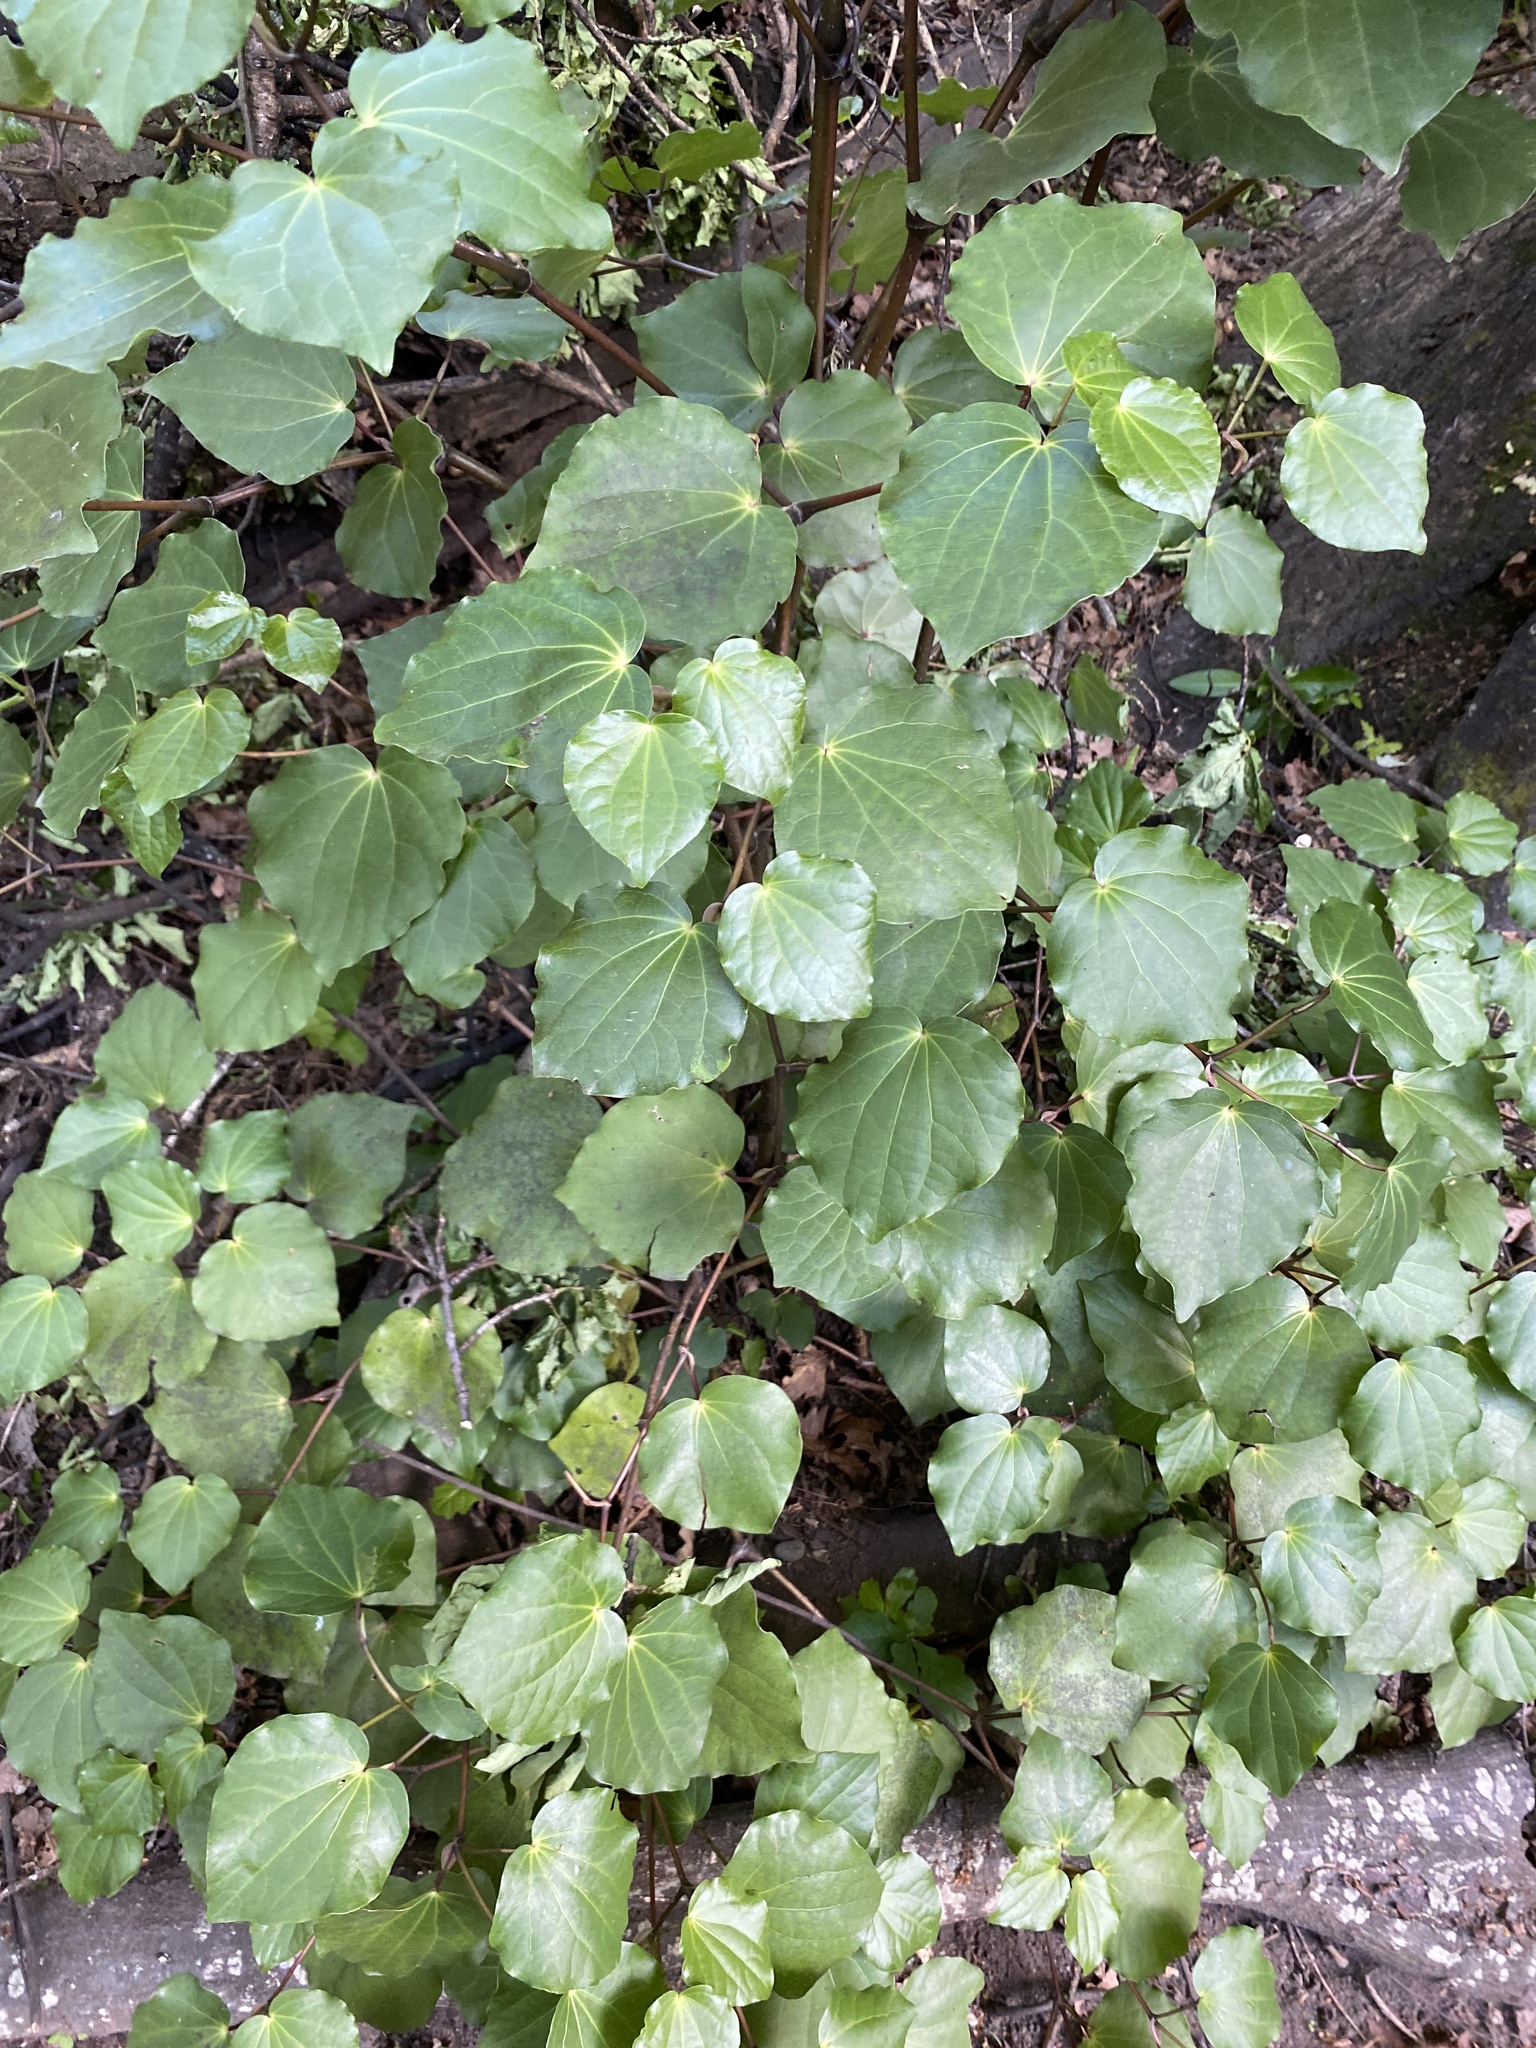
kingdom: Plantae
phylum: Tracheophyta
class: Magnoliopsida
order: Piperales
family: Piperaceae
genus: Macropiper
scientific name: Macropiper excelsum
